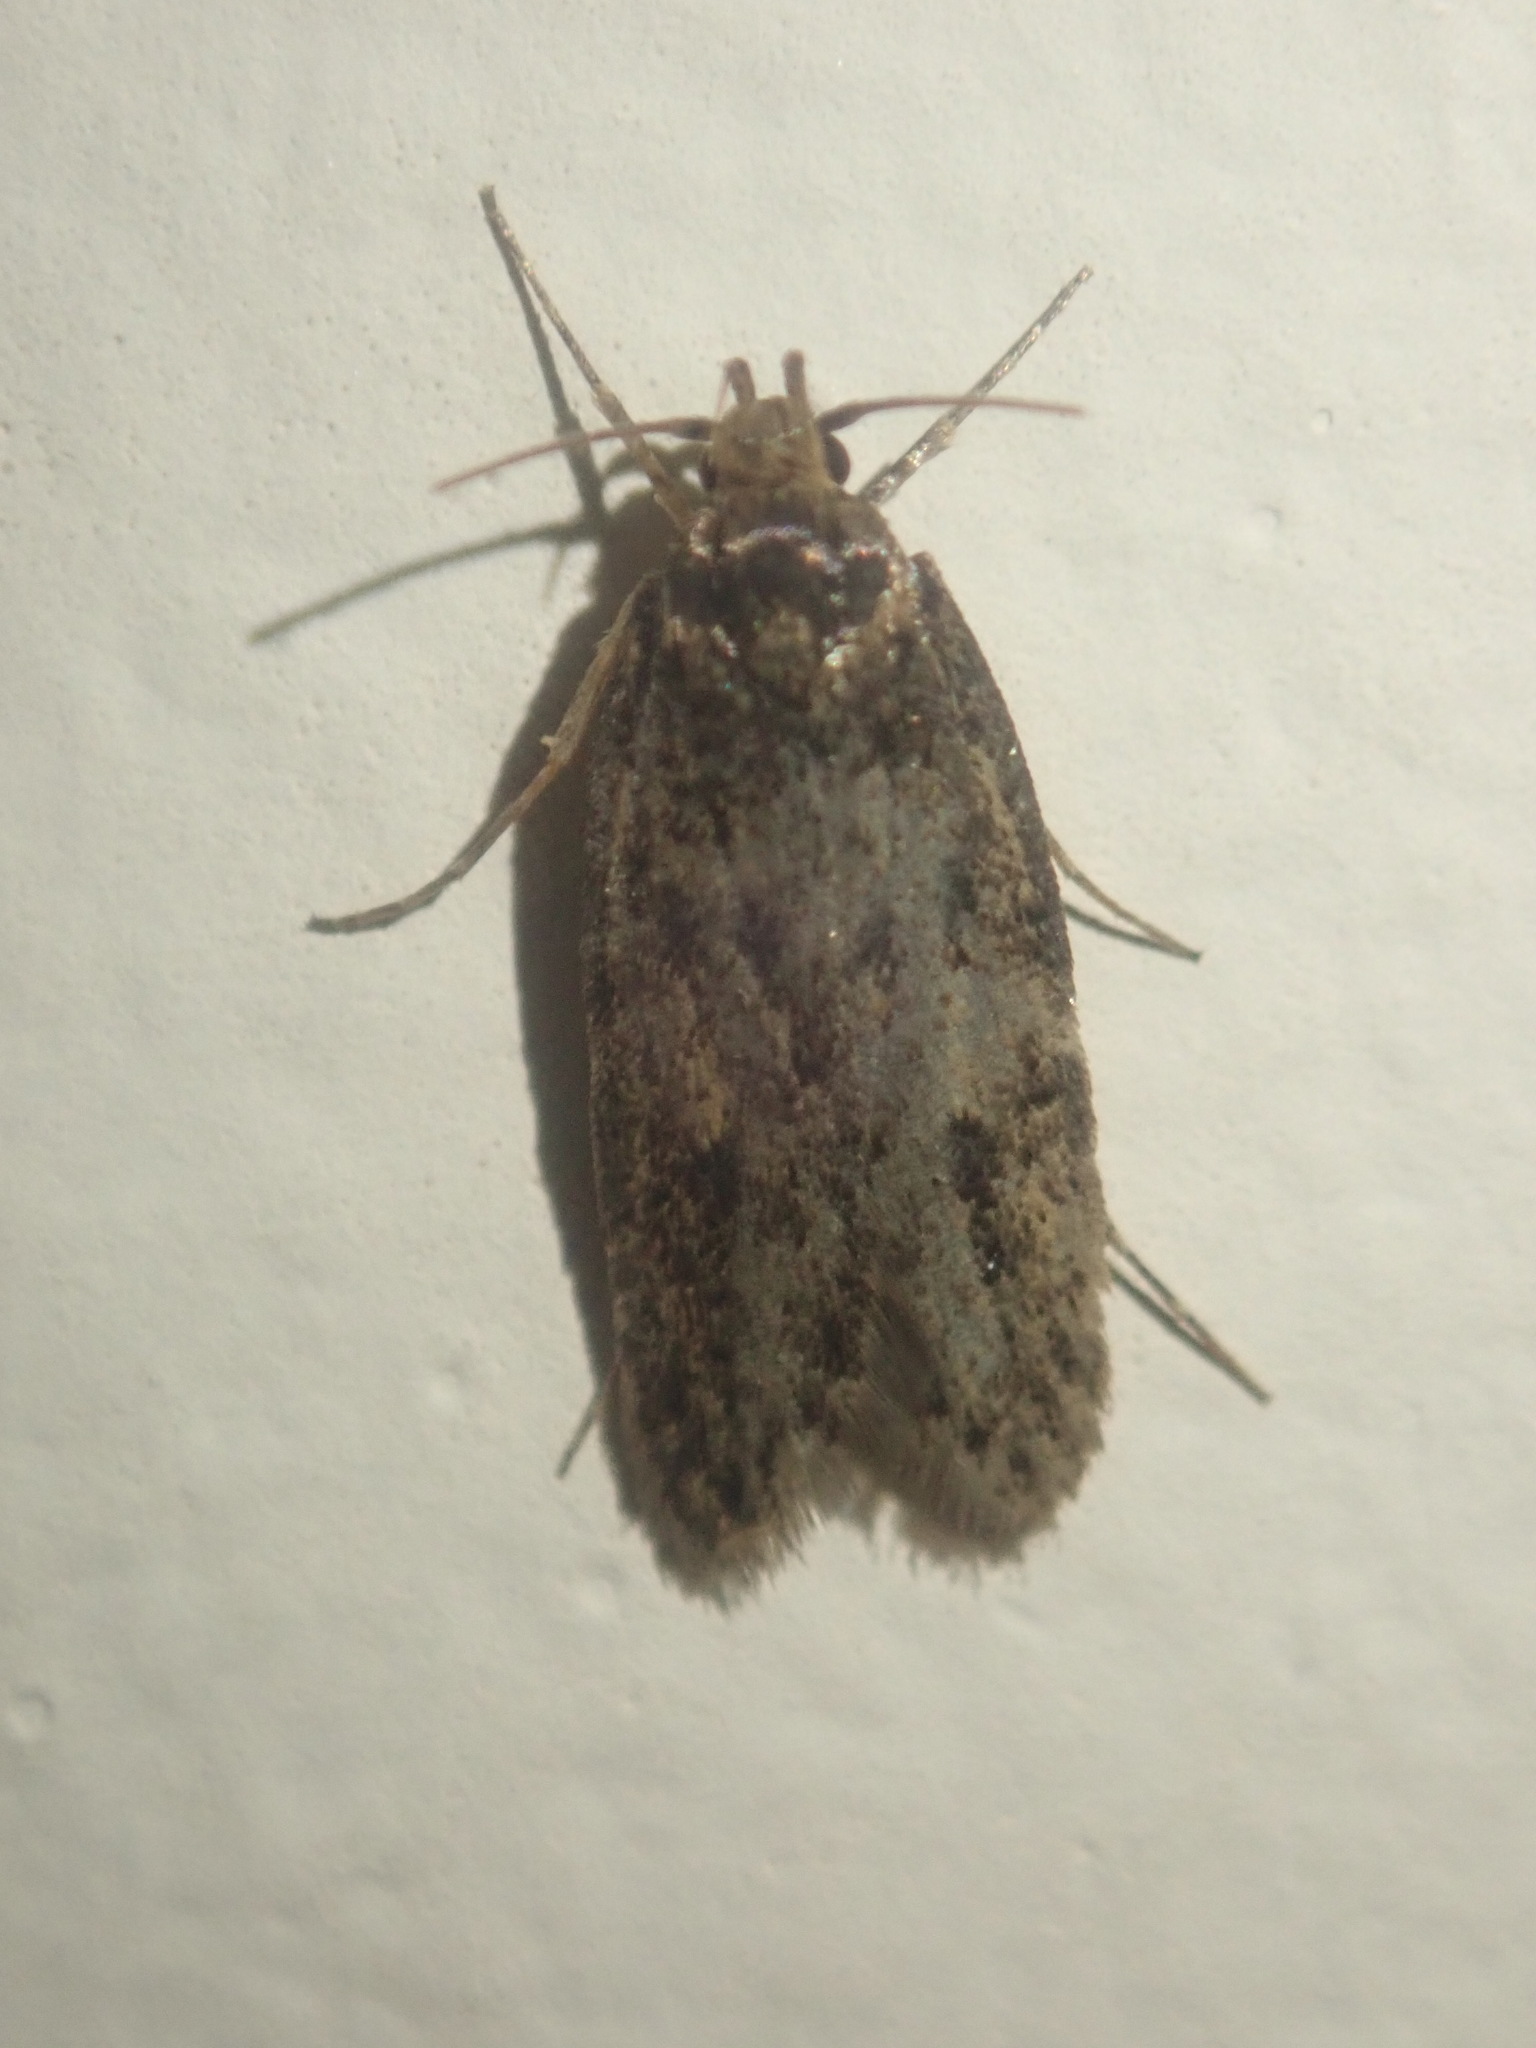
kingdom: Animalia
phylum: Arthropoda
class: Insecta
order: Lepidoptera
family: Oecophoridae
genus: Hofmannophila
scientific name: Hofmannophila pseudospretella
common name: Brown house moth
